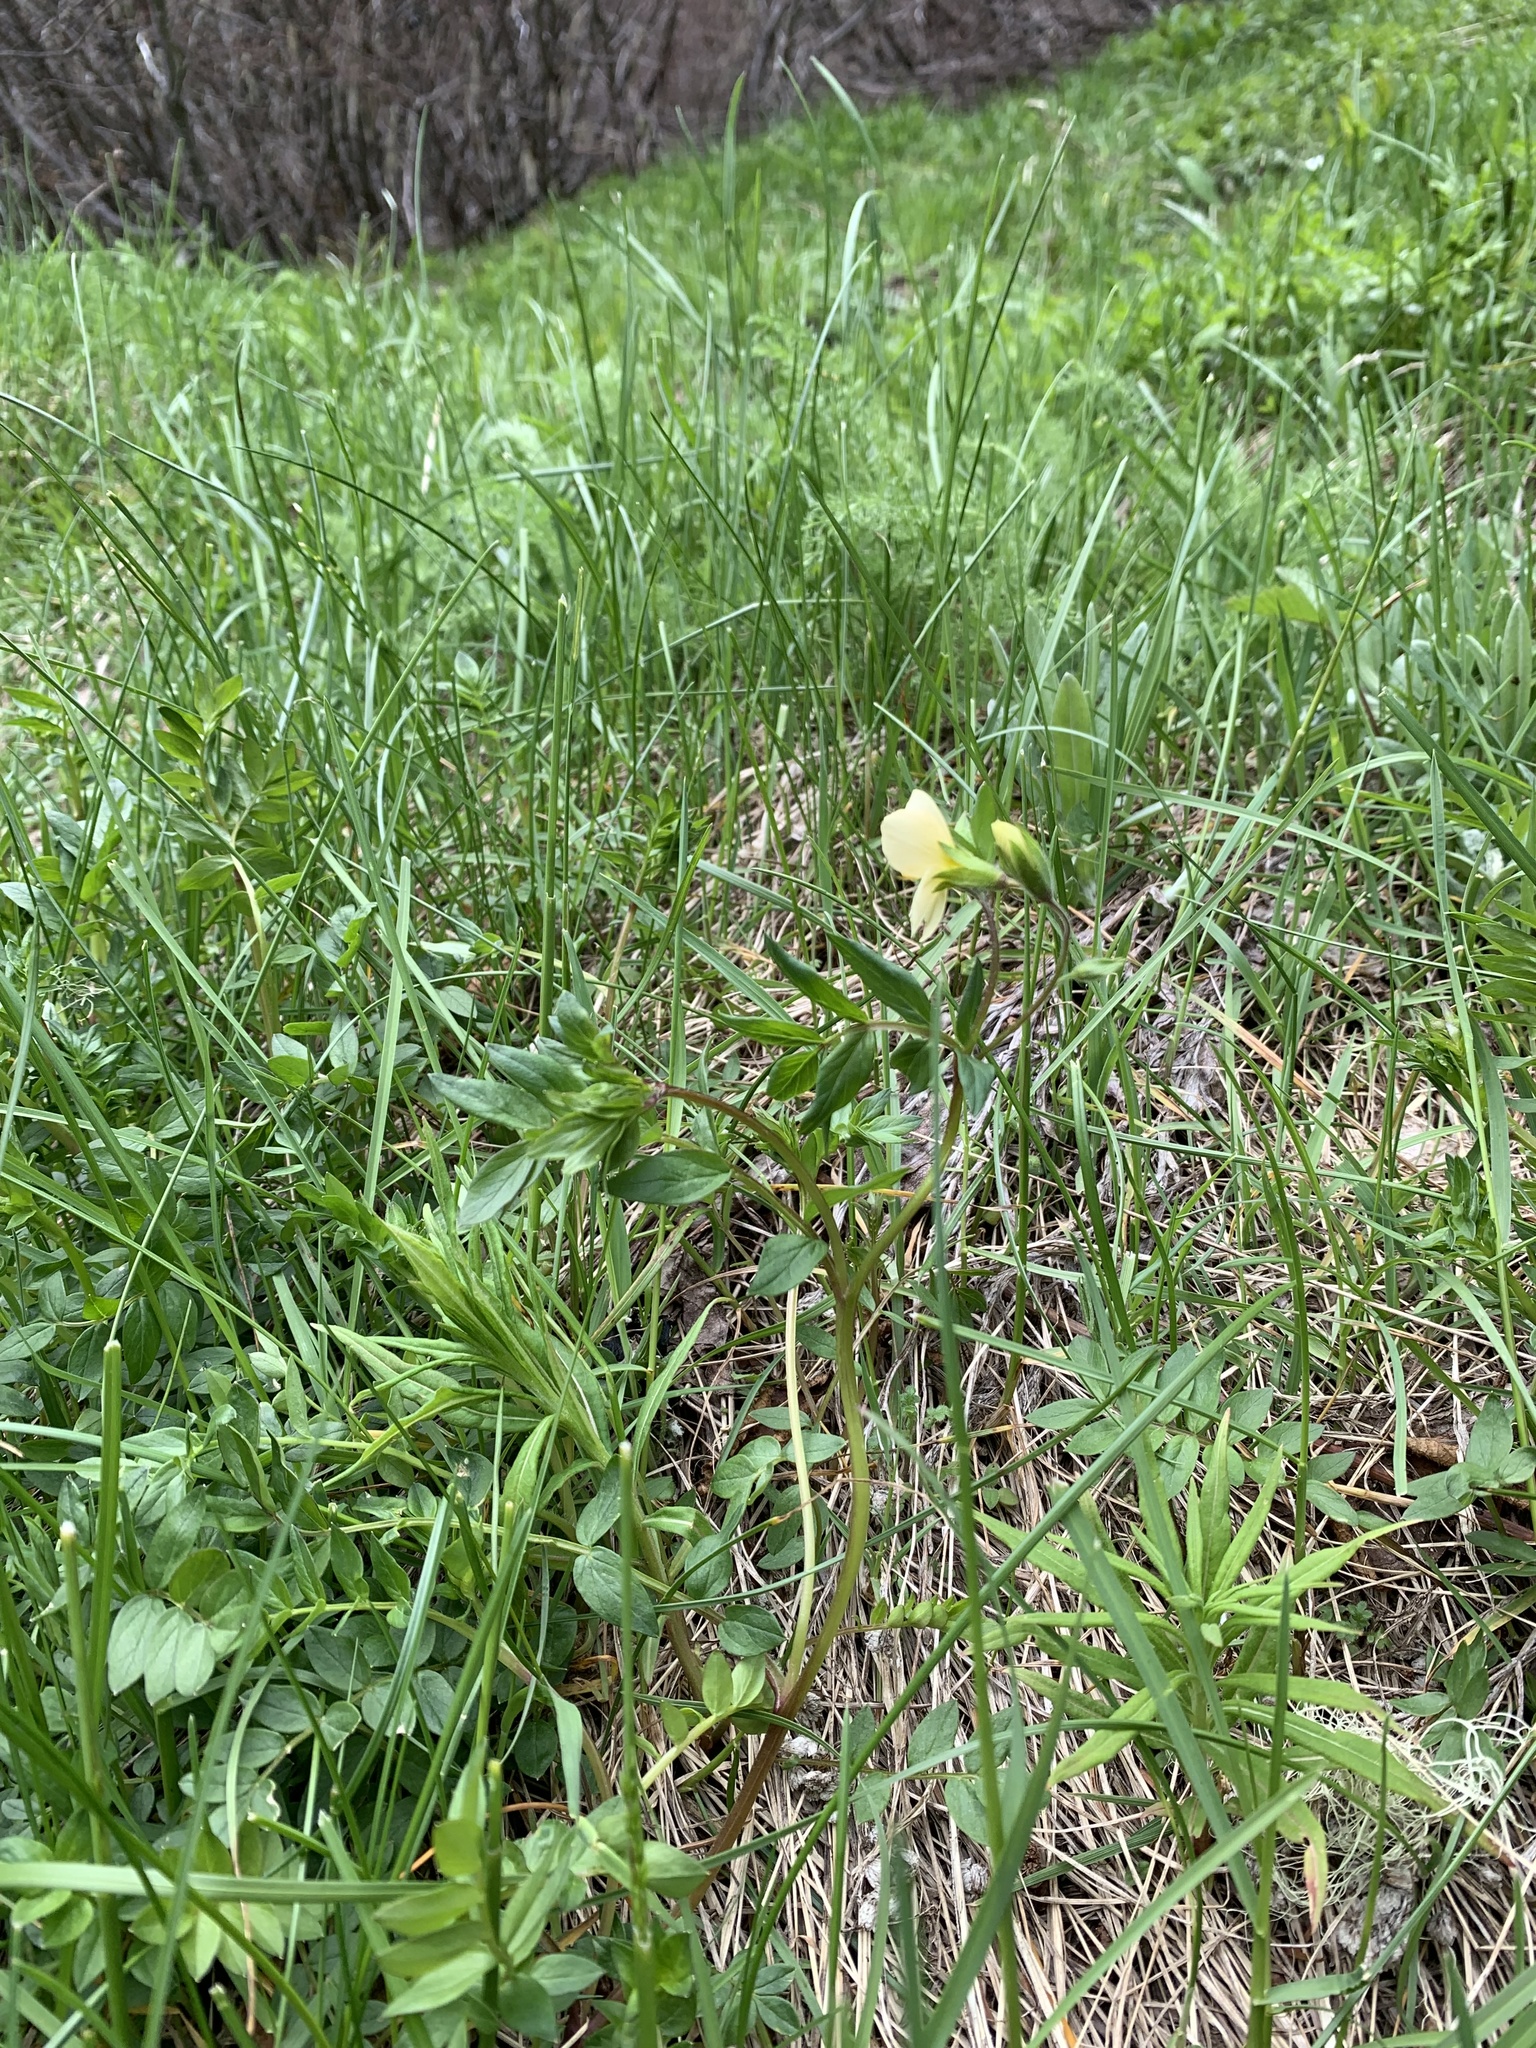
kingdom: Plantae
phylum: Tracheophyta
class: Magnoliopsida
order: Ericales
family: Polemoniaceae
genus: Polemonium
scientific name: Polemonium carneum
